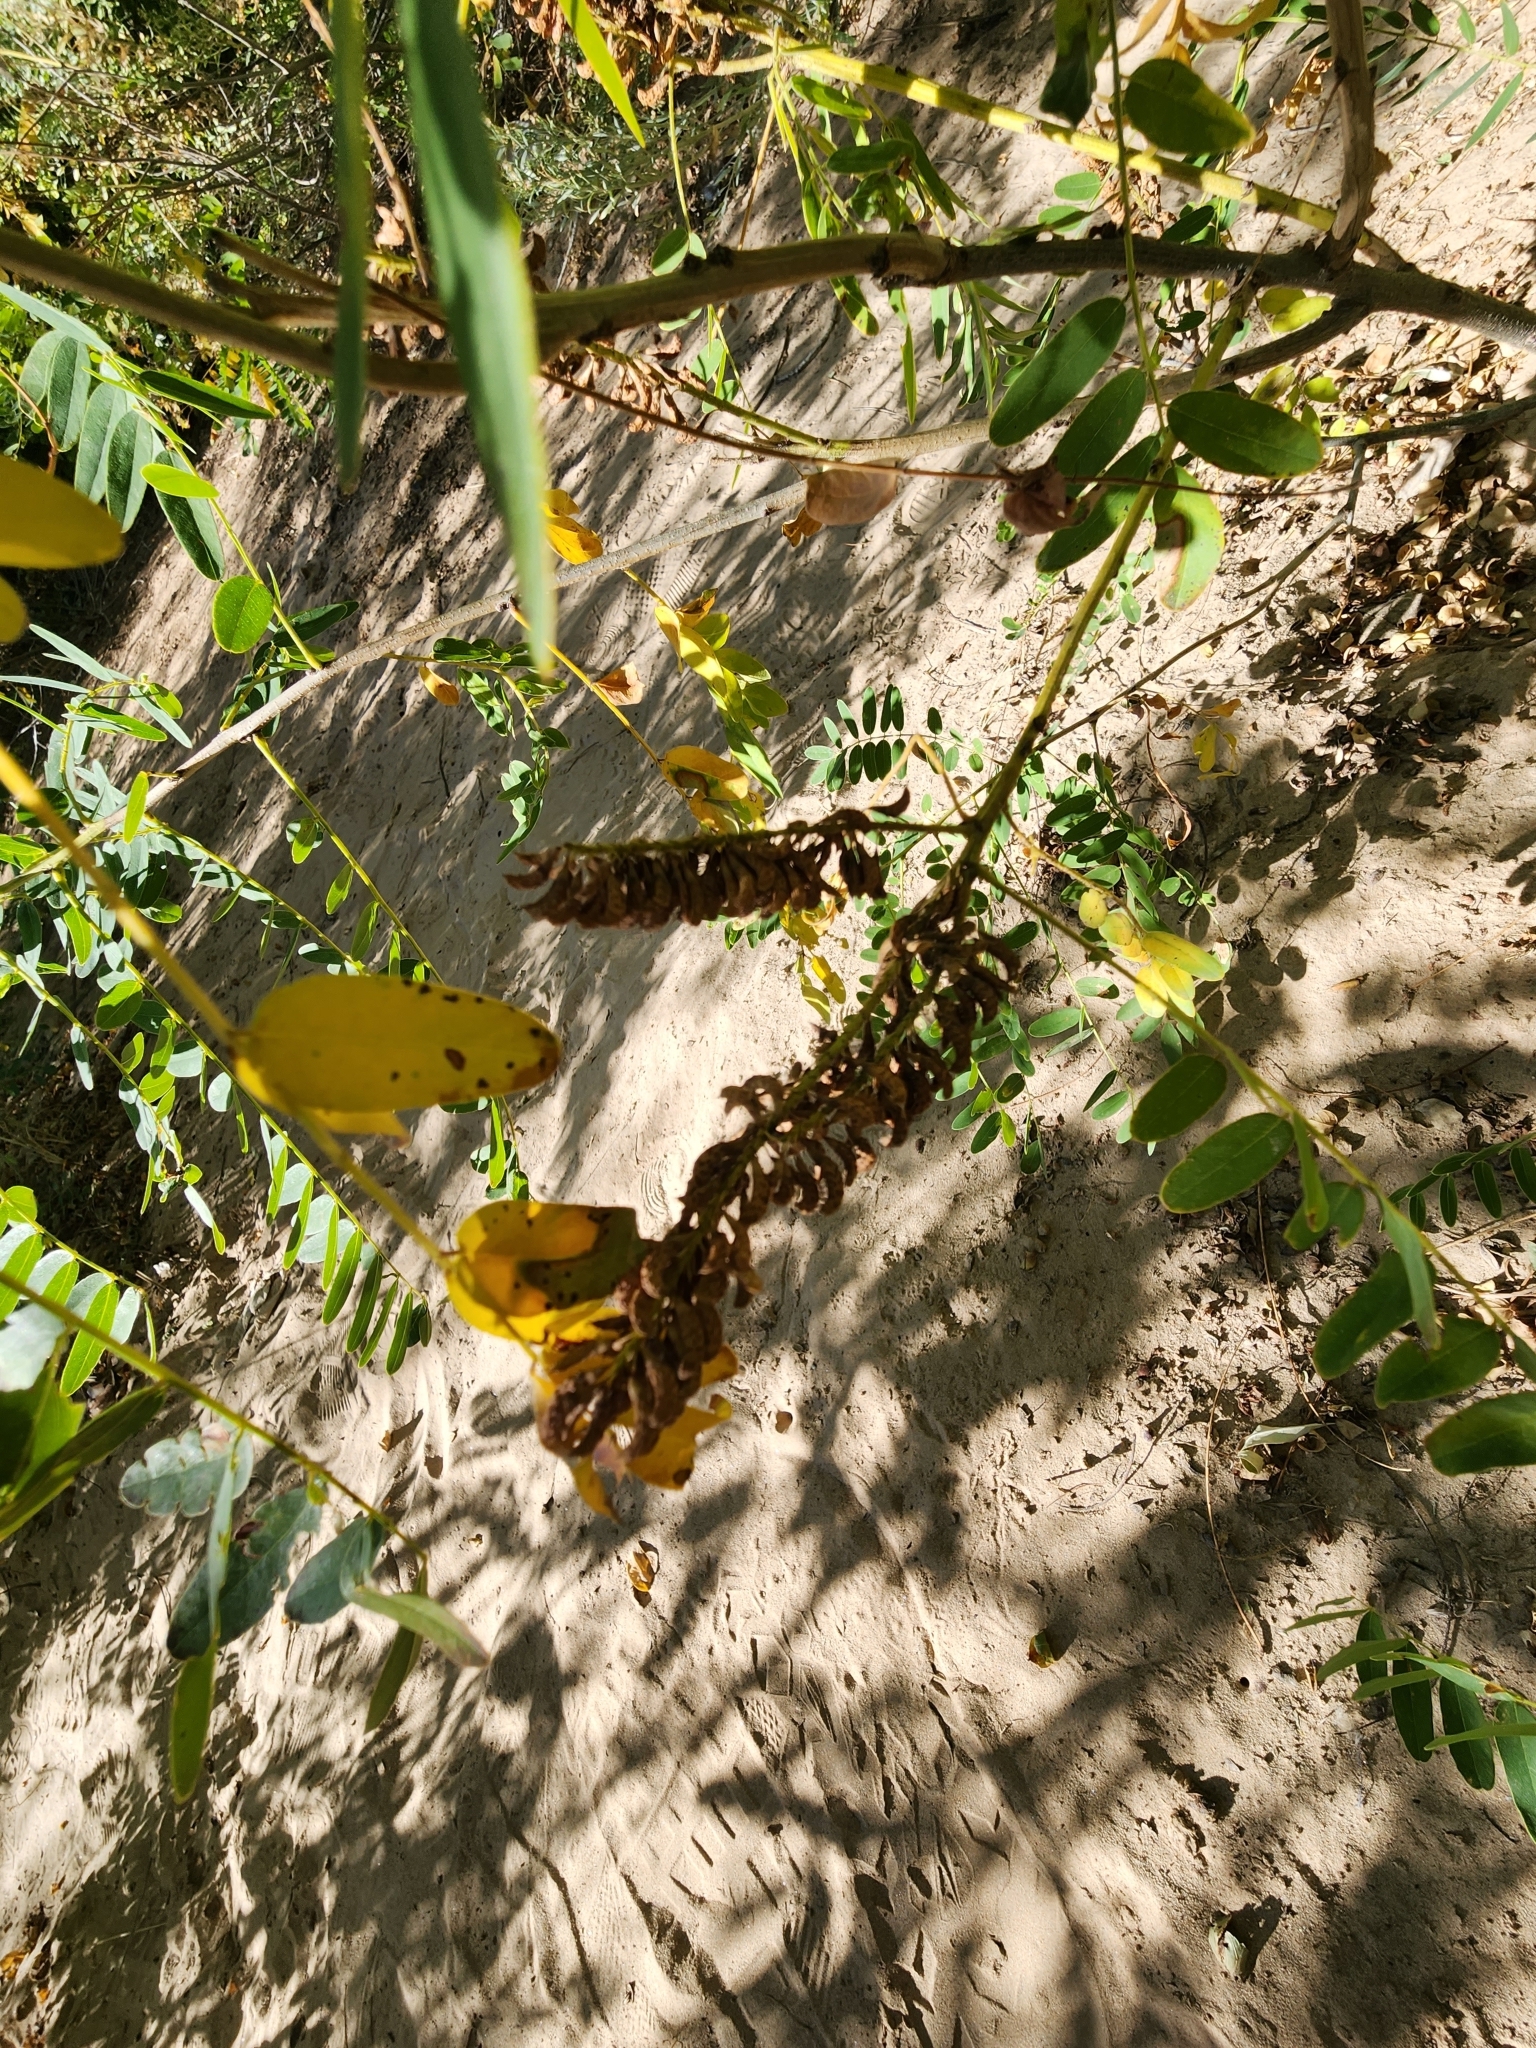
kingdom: Plantae
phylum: Tracheophyta
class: Magnoliopsida
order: Fabales
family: Fabaceae
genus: Amorpha
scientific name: Amorpha fruticosa
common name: False indigo
